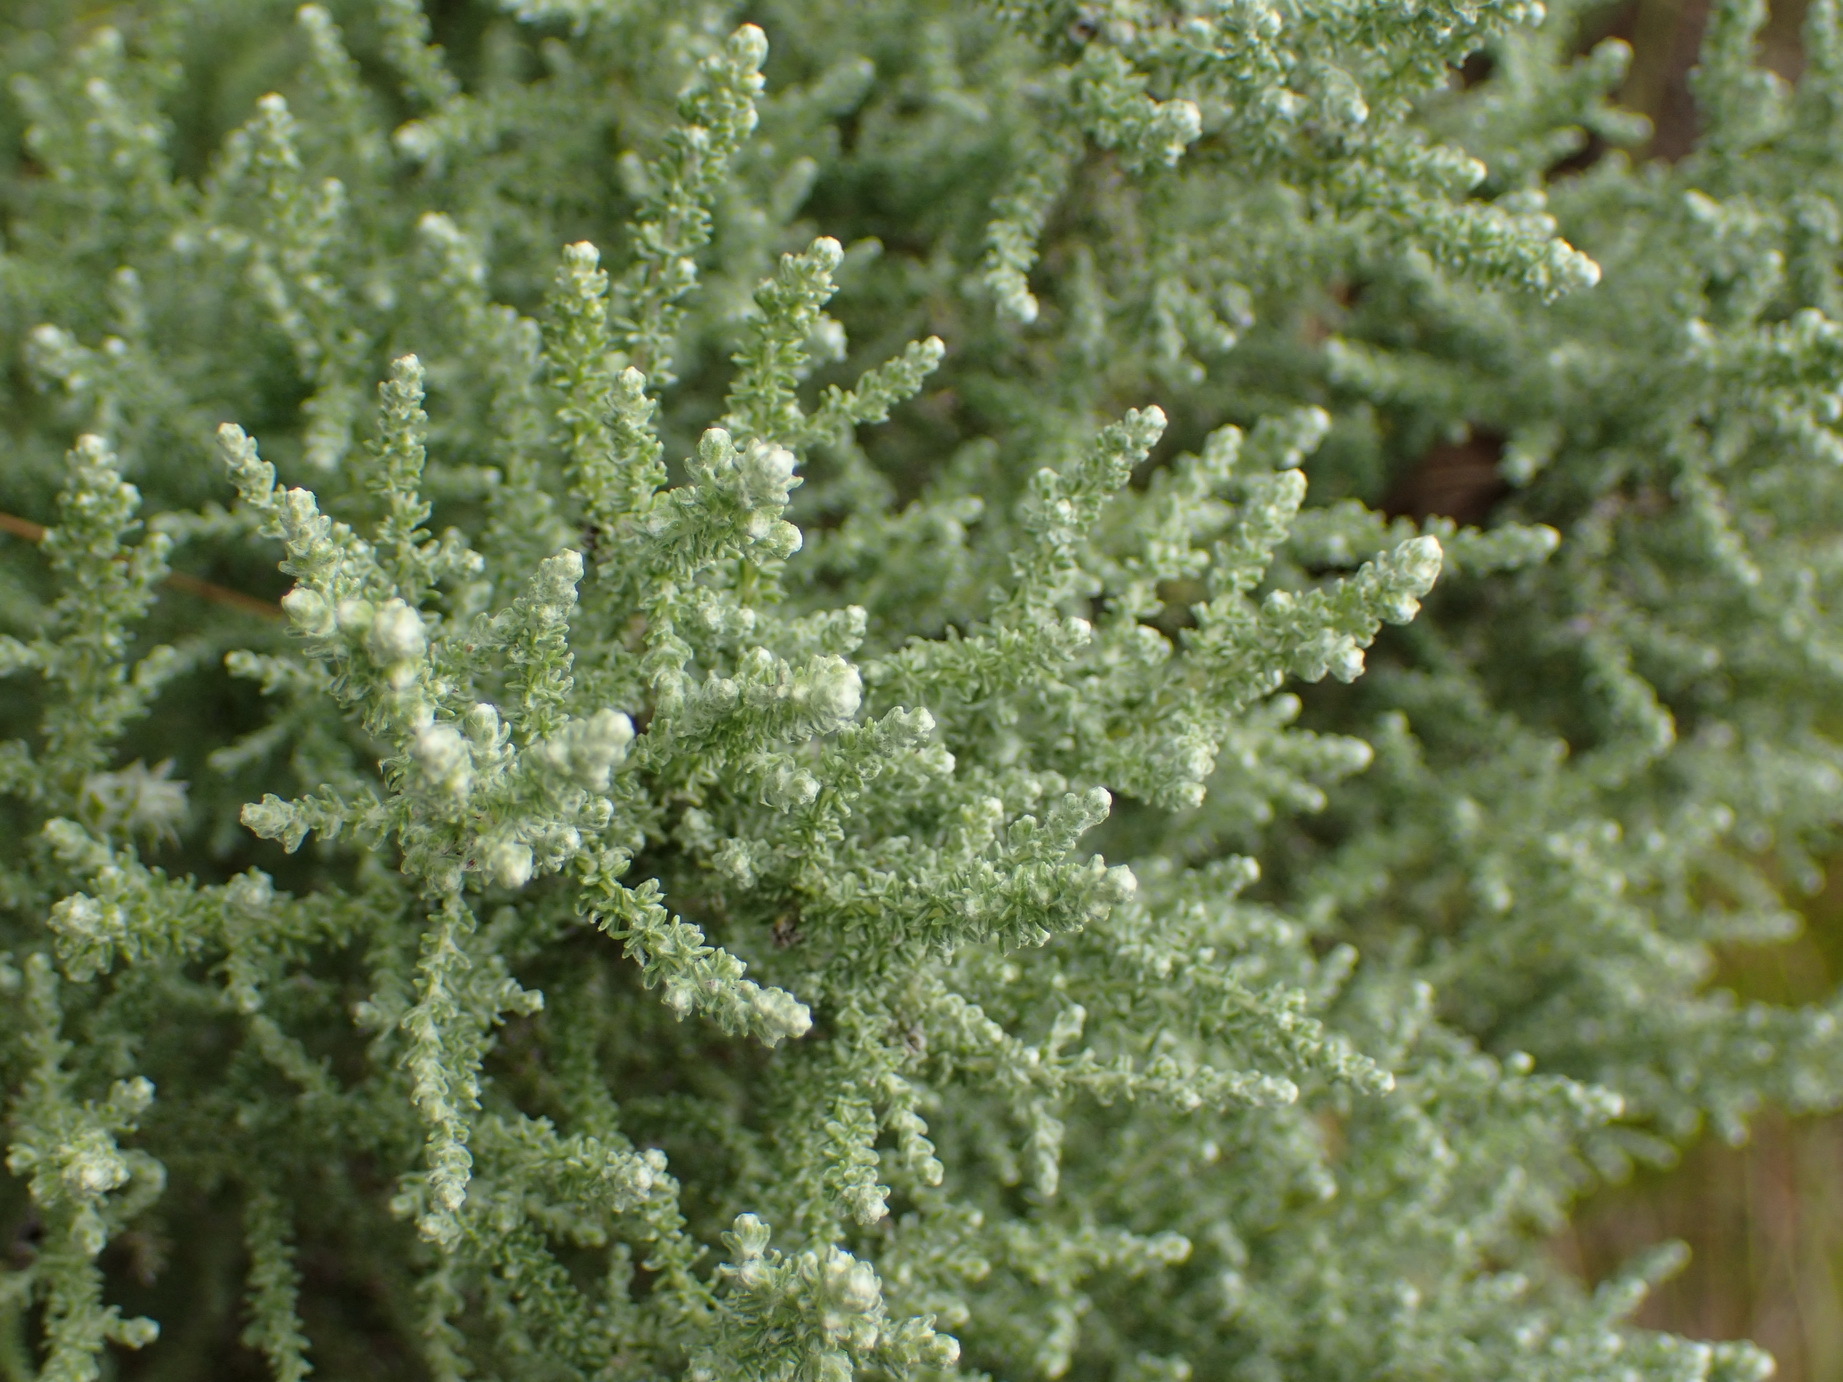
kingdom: Plantae
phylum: Tracheophyta
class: Magnoliopsida
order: Asterales
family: Asteraceae
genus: Seriphium
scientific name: Seriphium plumosum
